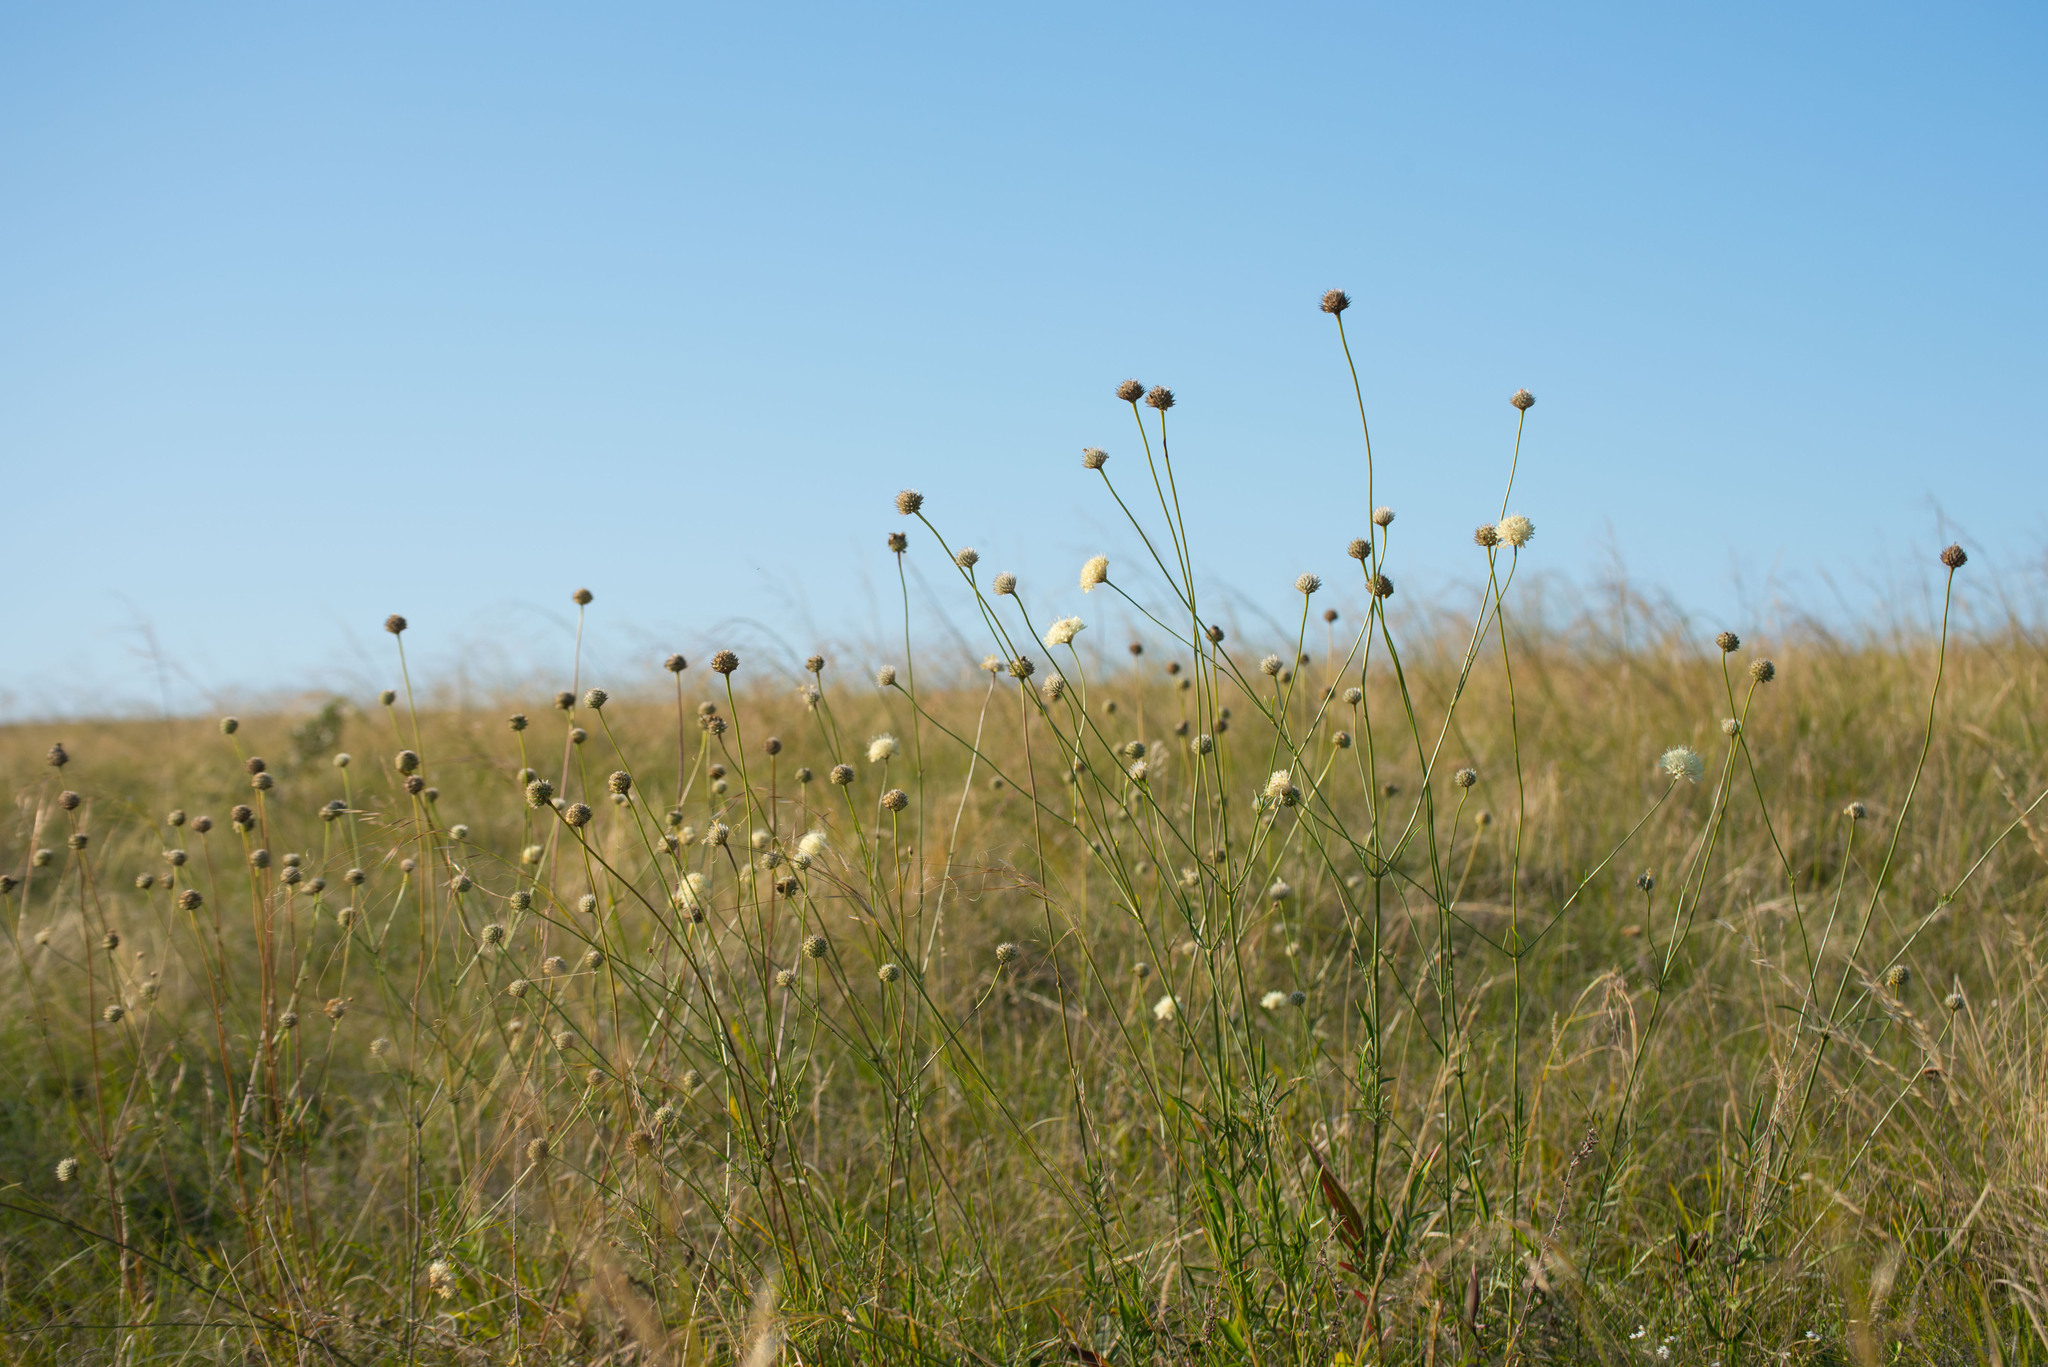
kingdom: Plantae
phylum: Tracheophyta
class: Magnoliopsida
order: Dipsacales
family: Caprifoliaceae
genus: Cephalaria
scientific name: Cephalaria uralensis
